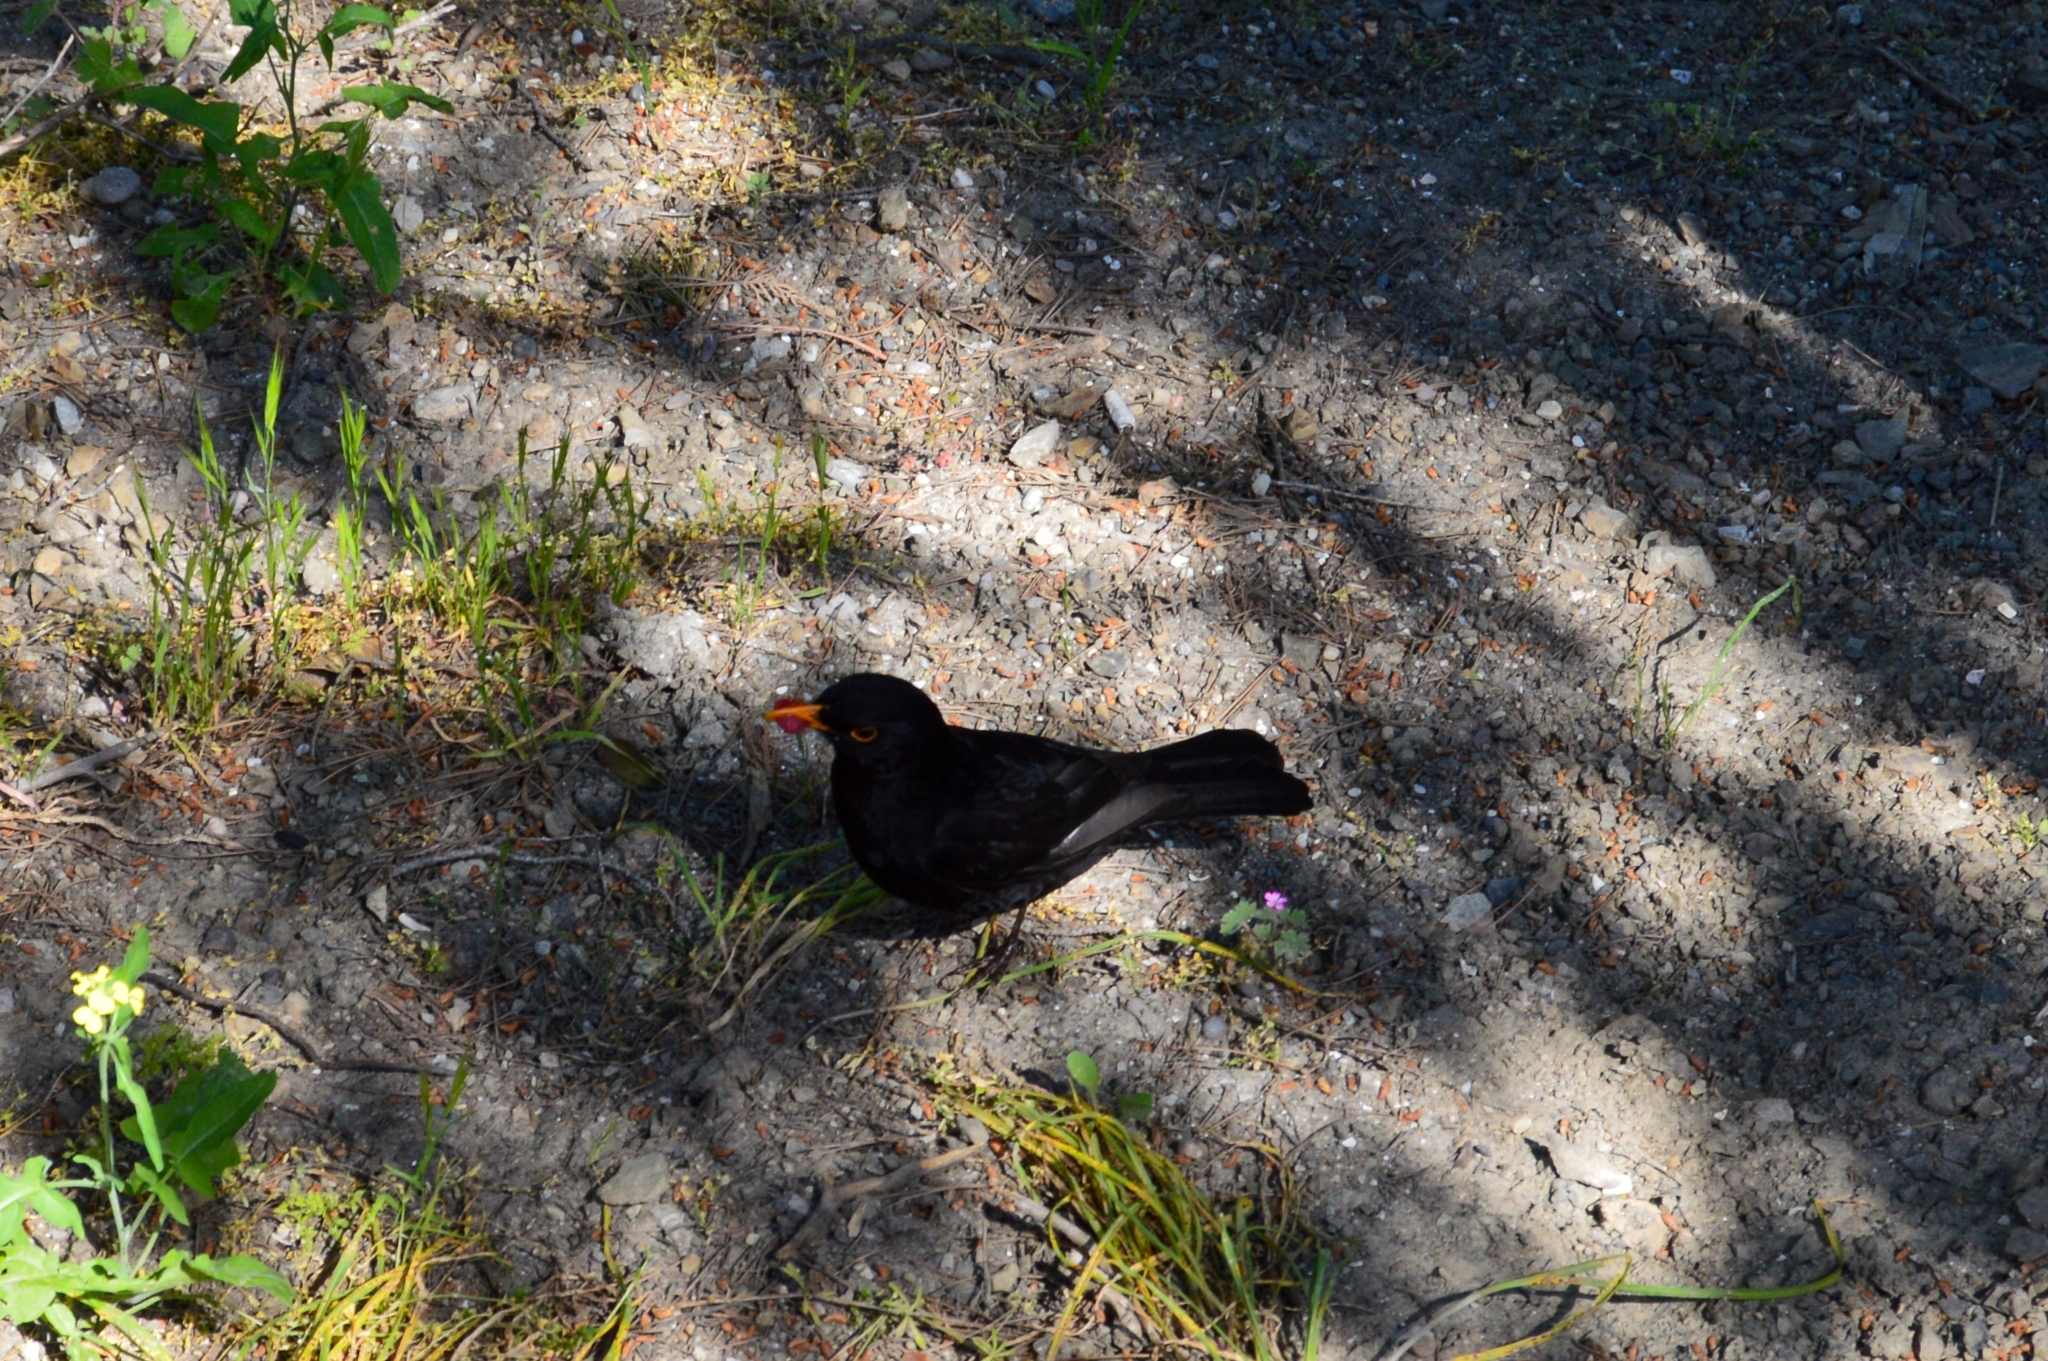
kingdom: Animalia
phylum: Chordata
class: Aves
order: Passeriformes
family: Turdidae
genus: Turdus
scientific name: Turdus merula
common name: Common blackbird
